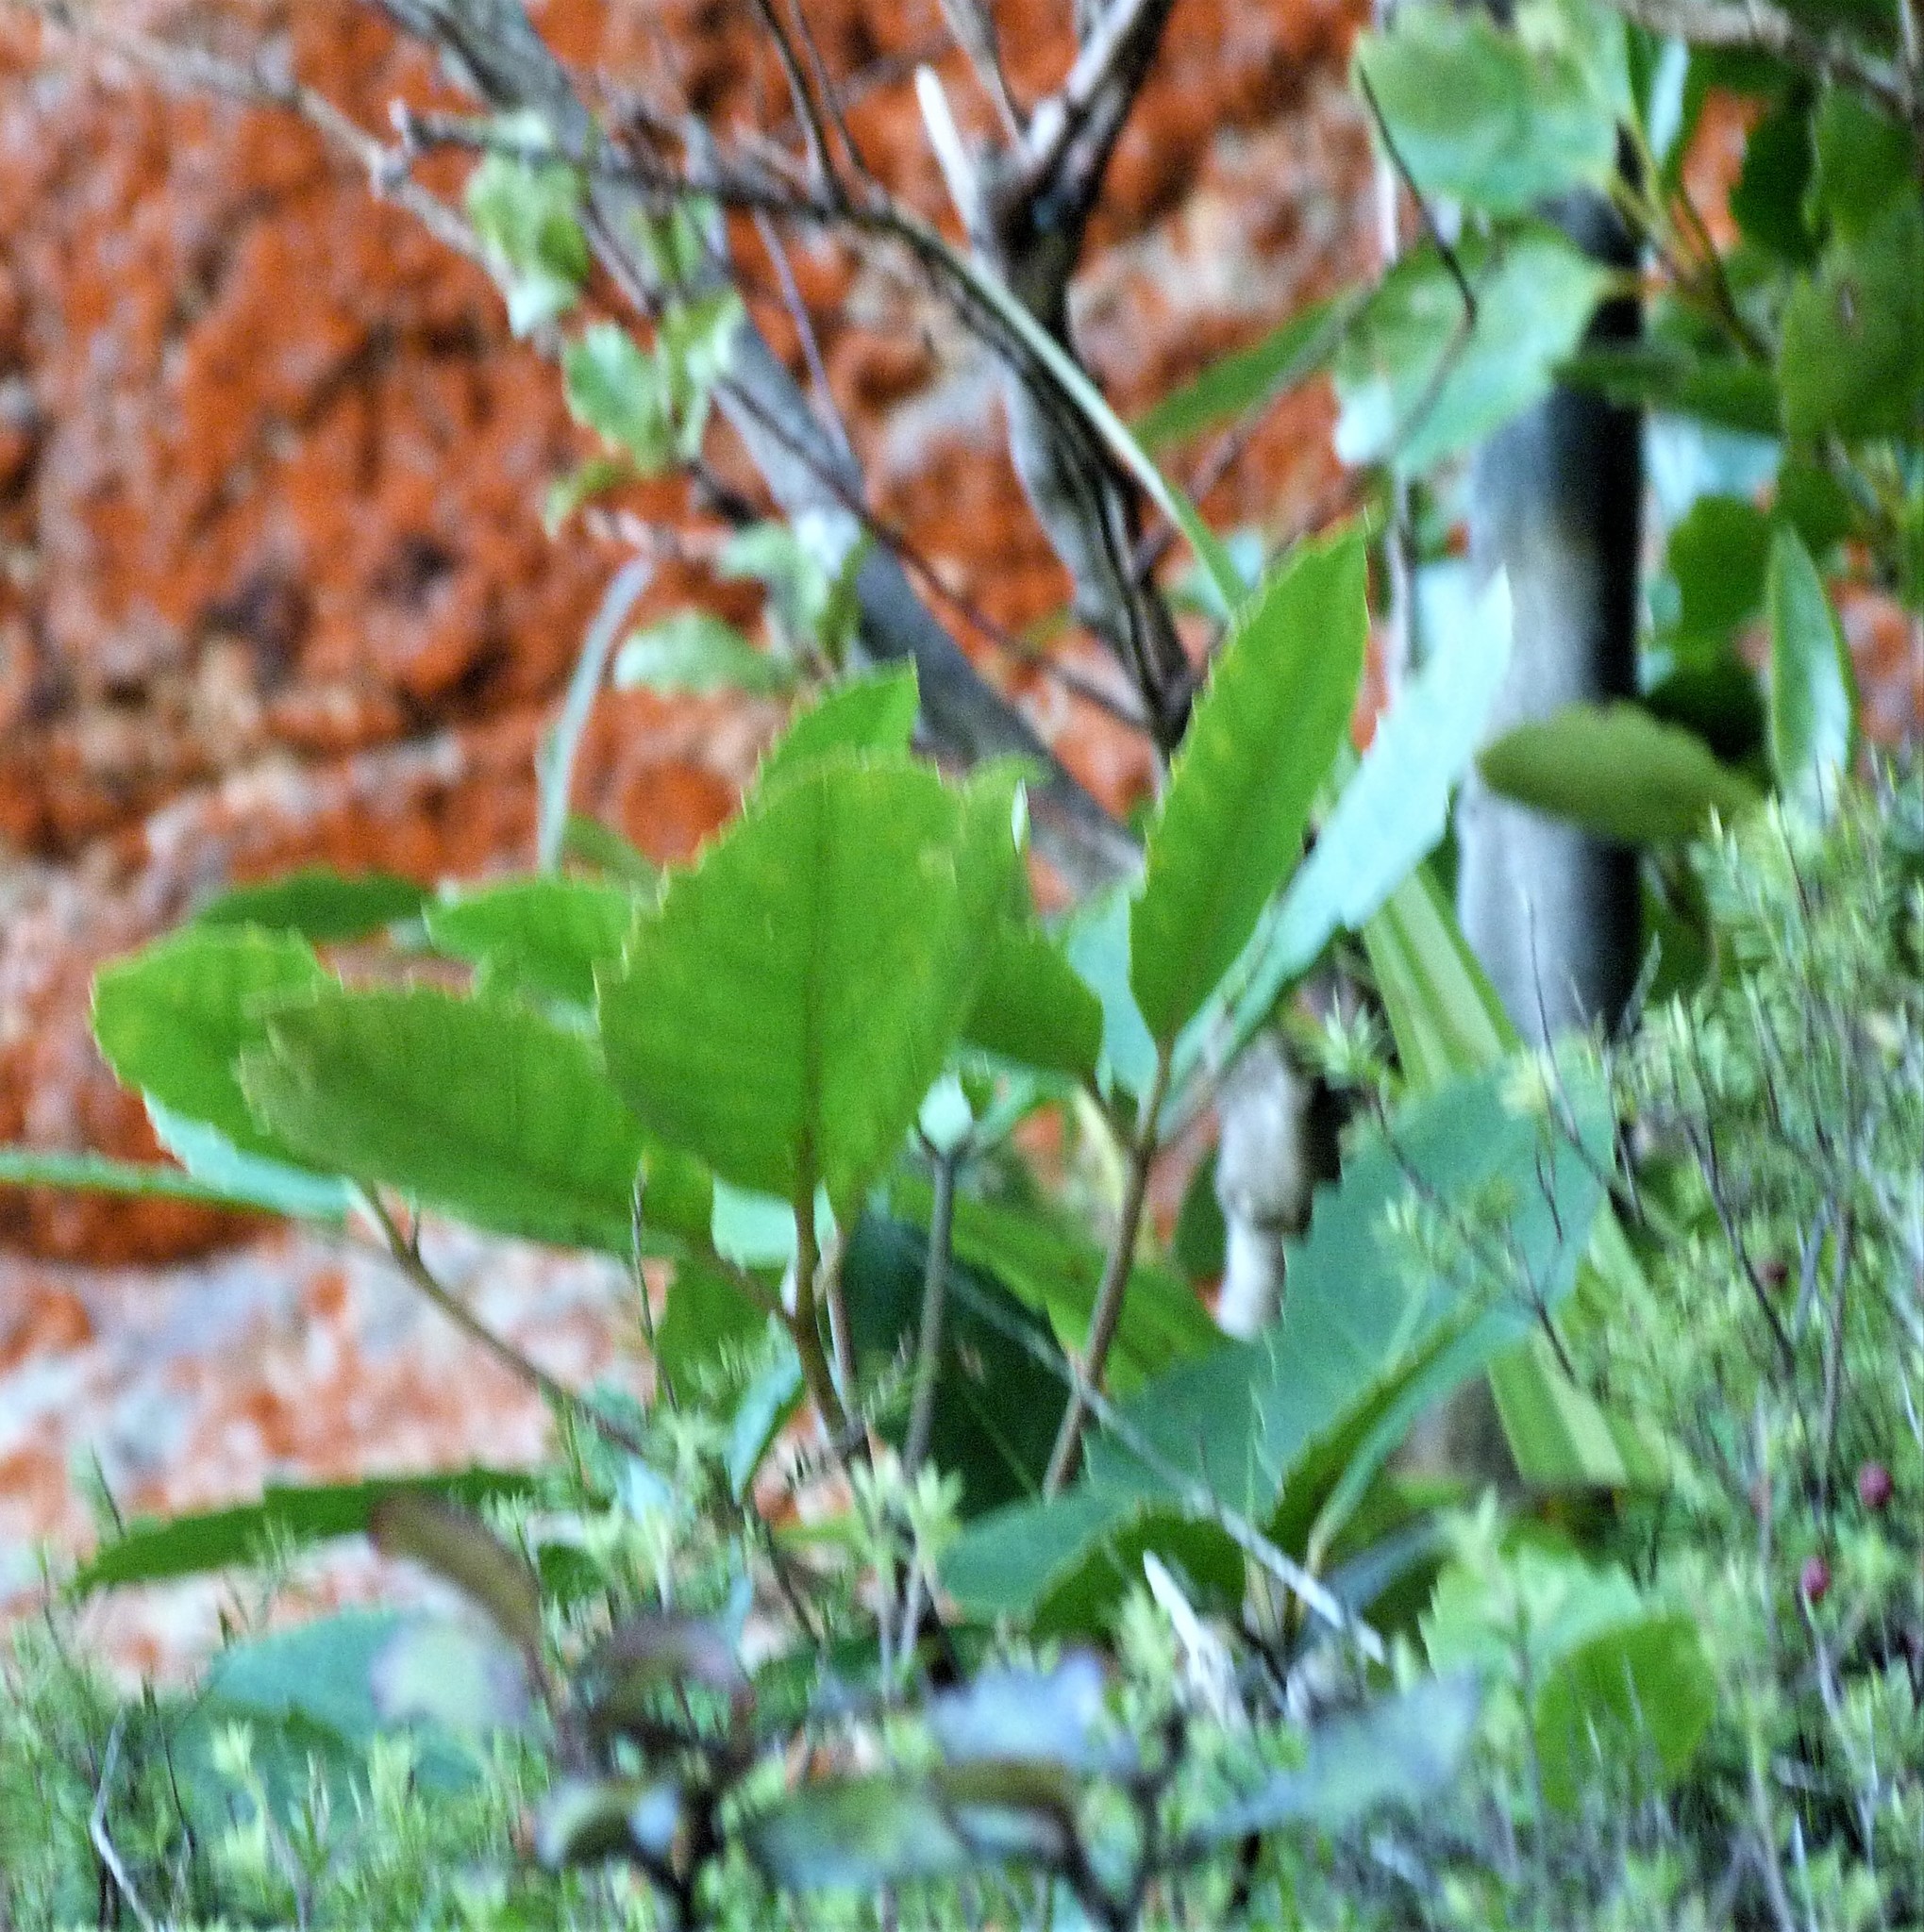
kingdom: Plantae
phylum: Tracheophyta
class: Magnoliopsida
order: Apiales
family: Araliaceae
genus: Neopanax
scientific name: Neopanax arboreus
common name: Five-fingers
